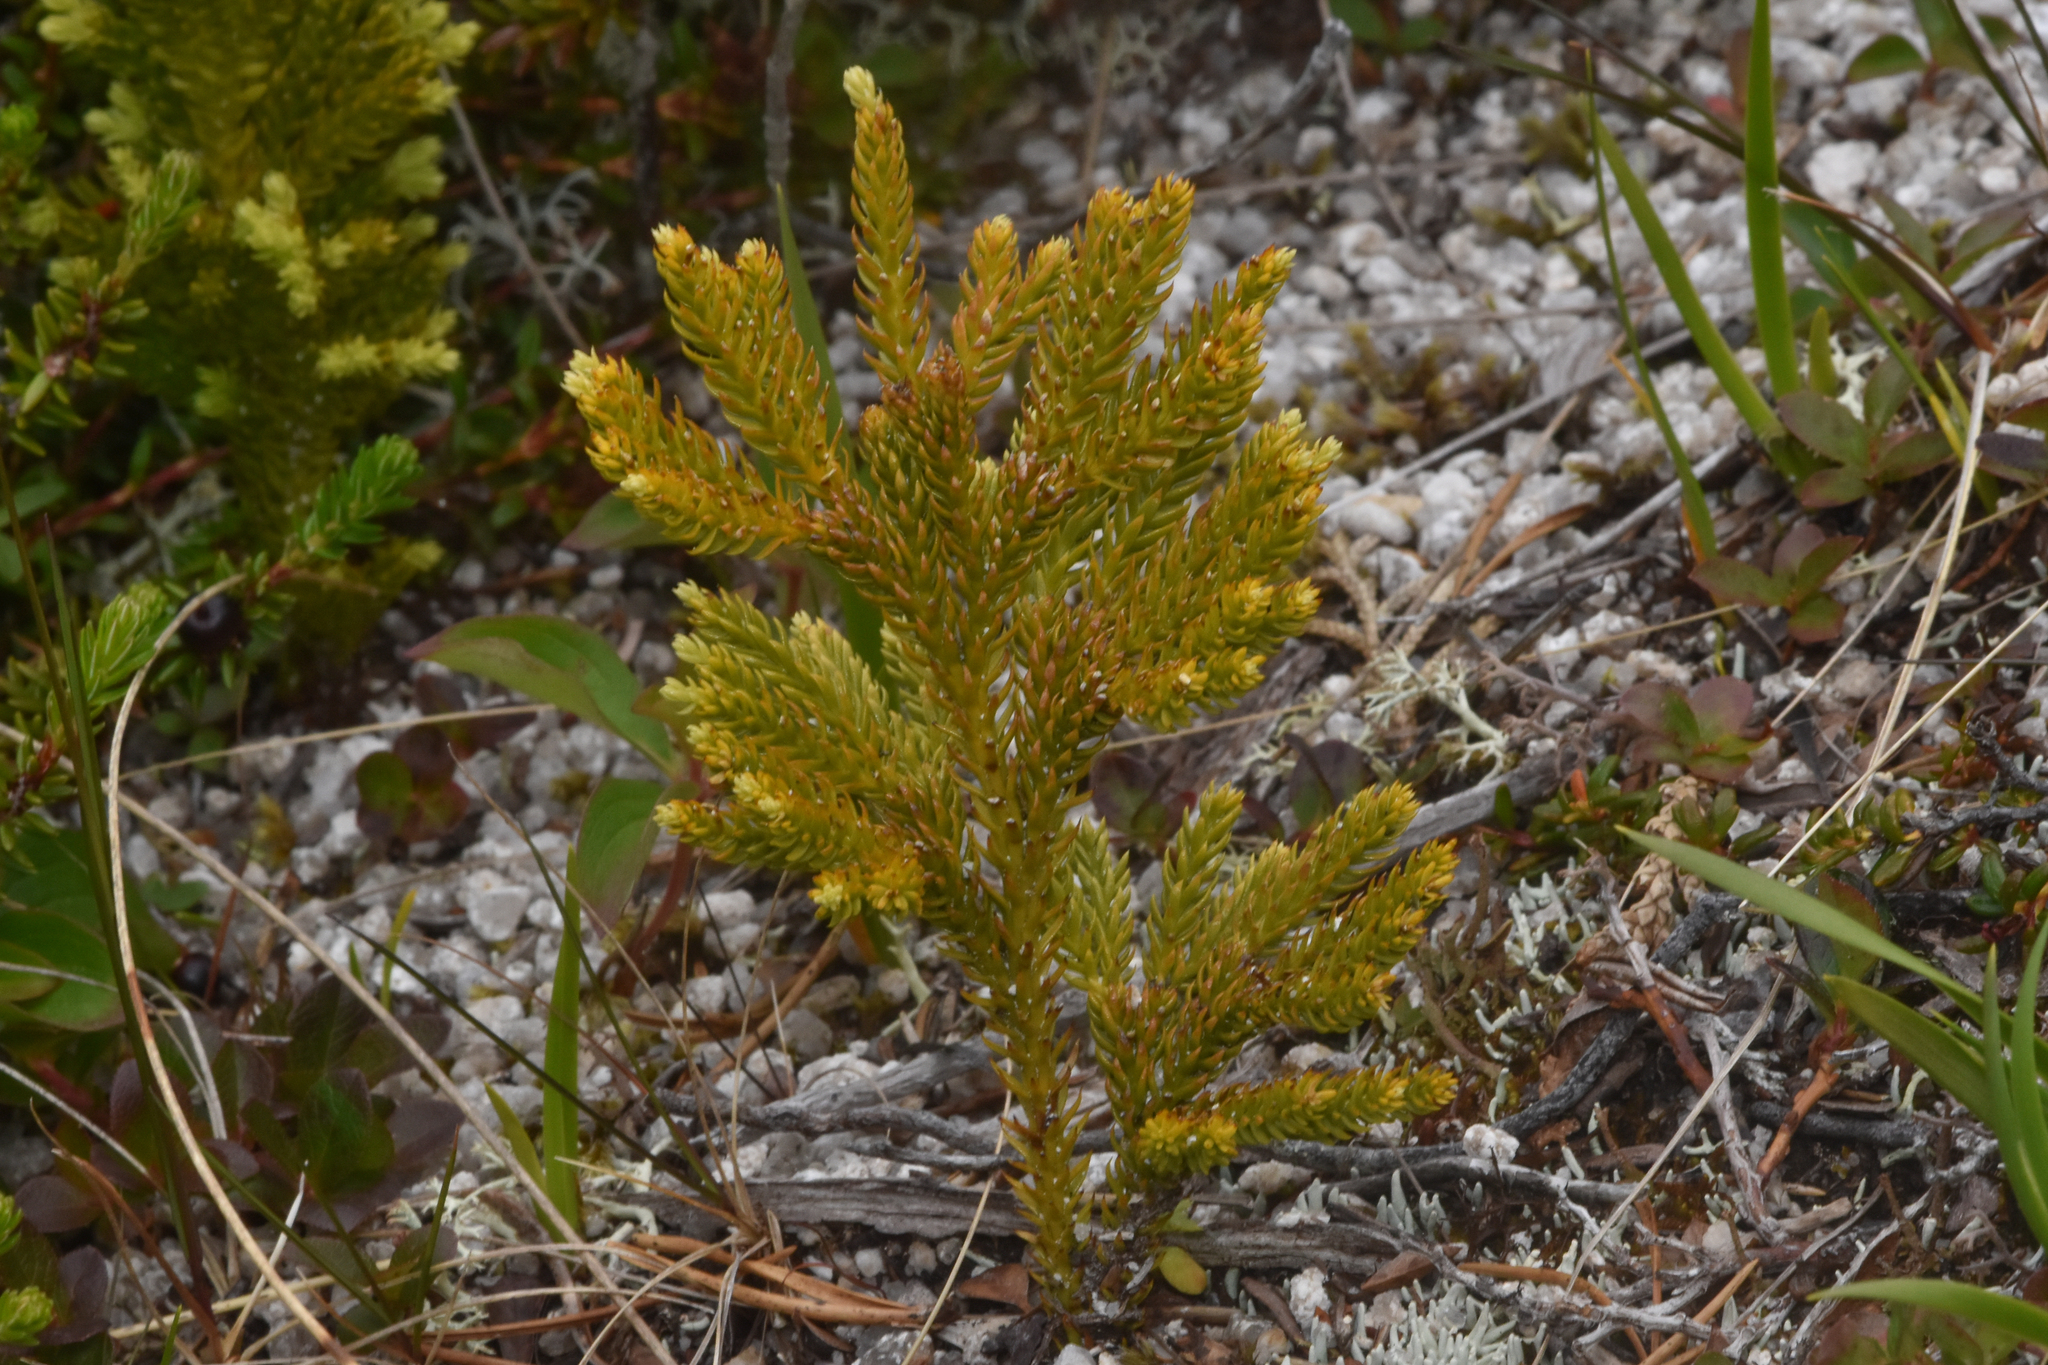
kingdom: Plantae
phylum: Tracheophyta
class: Lycopodiopsida
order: Lycopodiales
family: Lycopodiaceae
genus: Dendrolycopodium
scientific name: Dendrolycopodium dendroideum
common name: Northern tree-clubmoss
